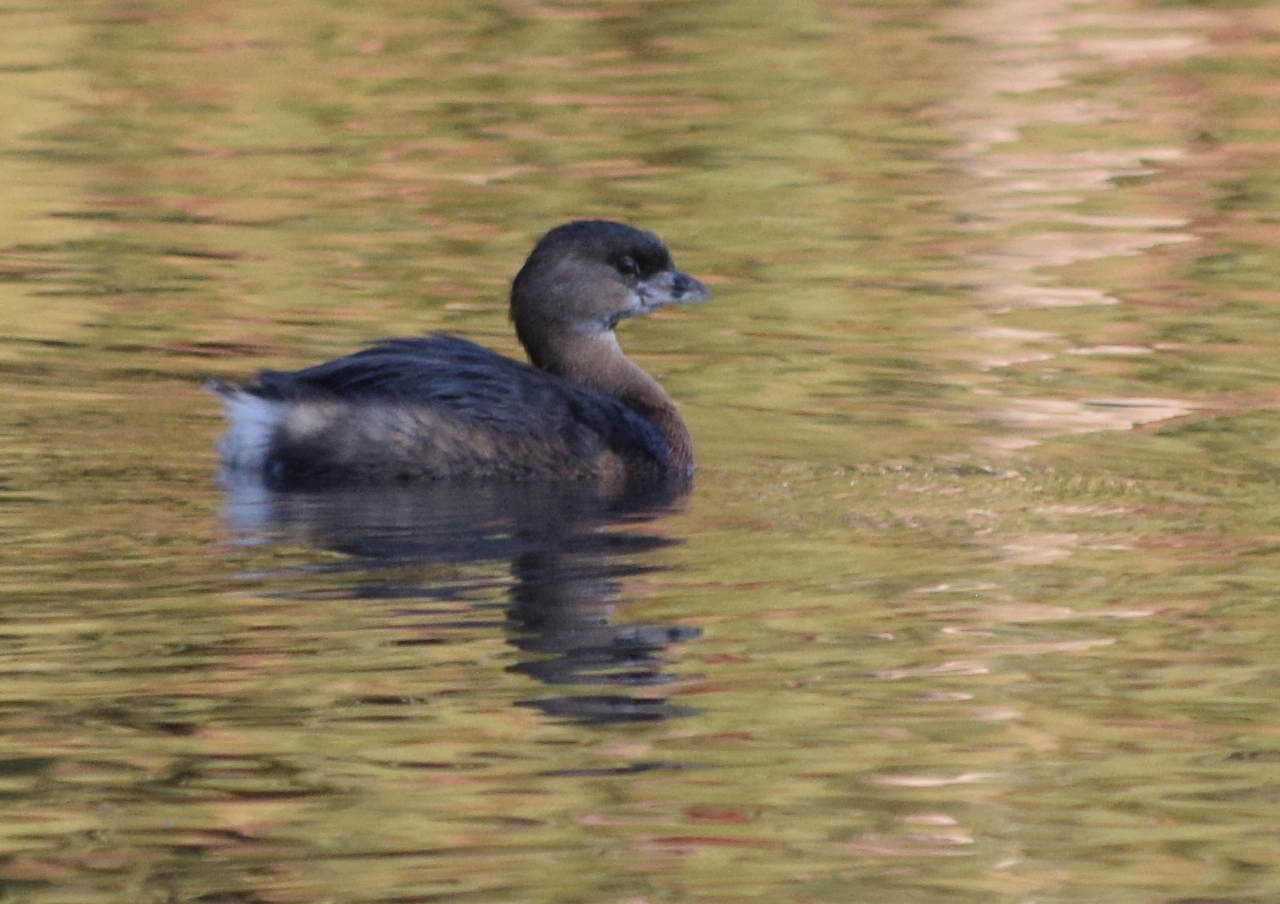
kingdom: Animalia
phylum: Chordata
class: Aves
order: Podicipediformes
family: Podicipedidae
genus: Podilymbus
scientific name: Podilymbus podiceps
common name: Pied-billed grebe
